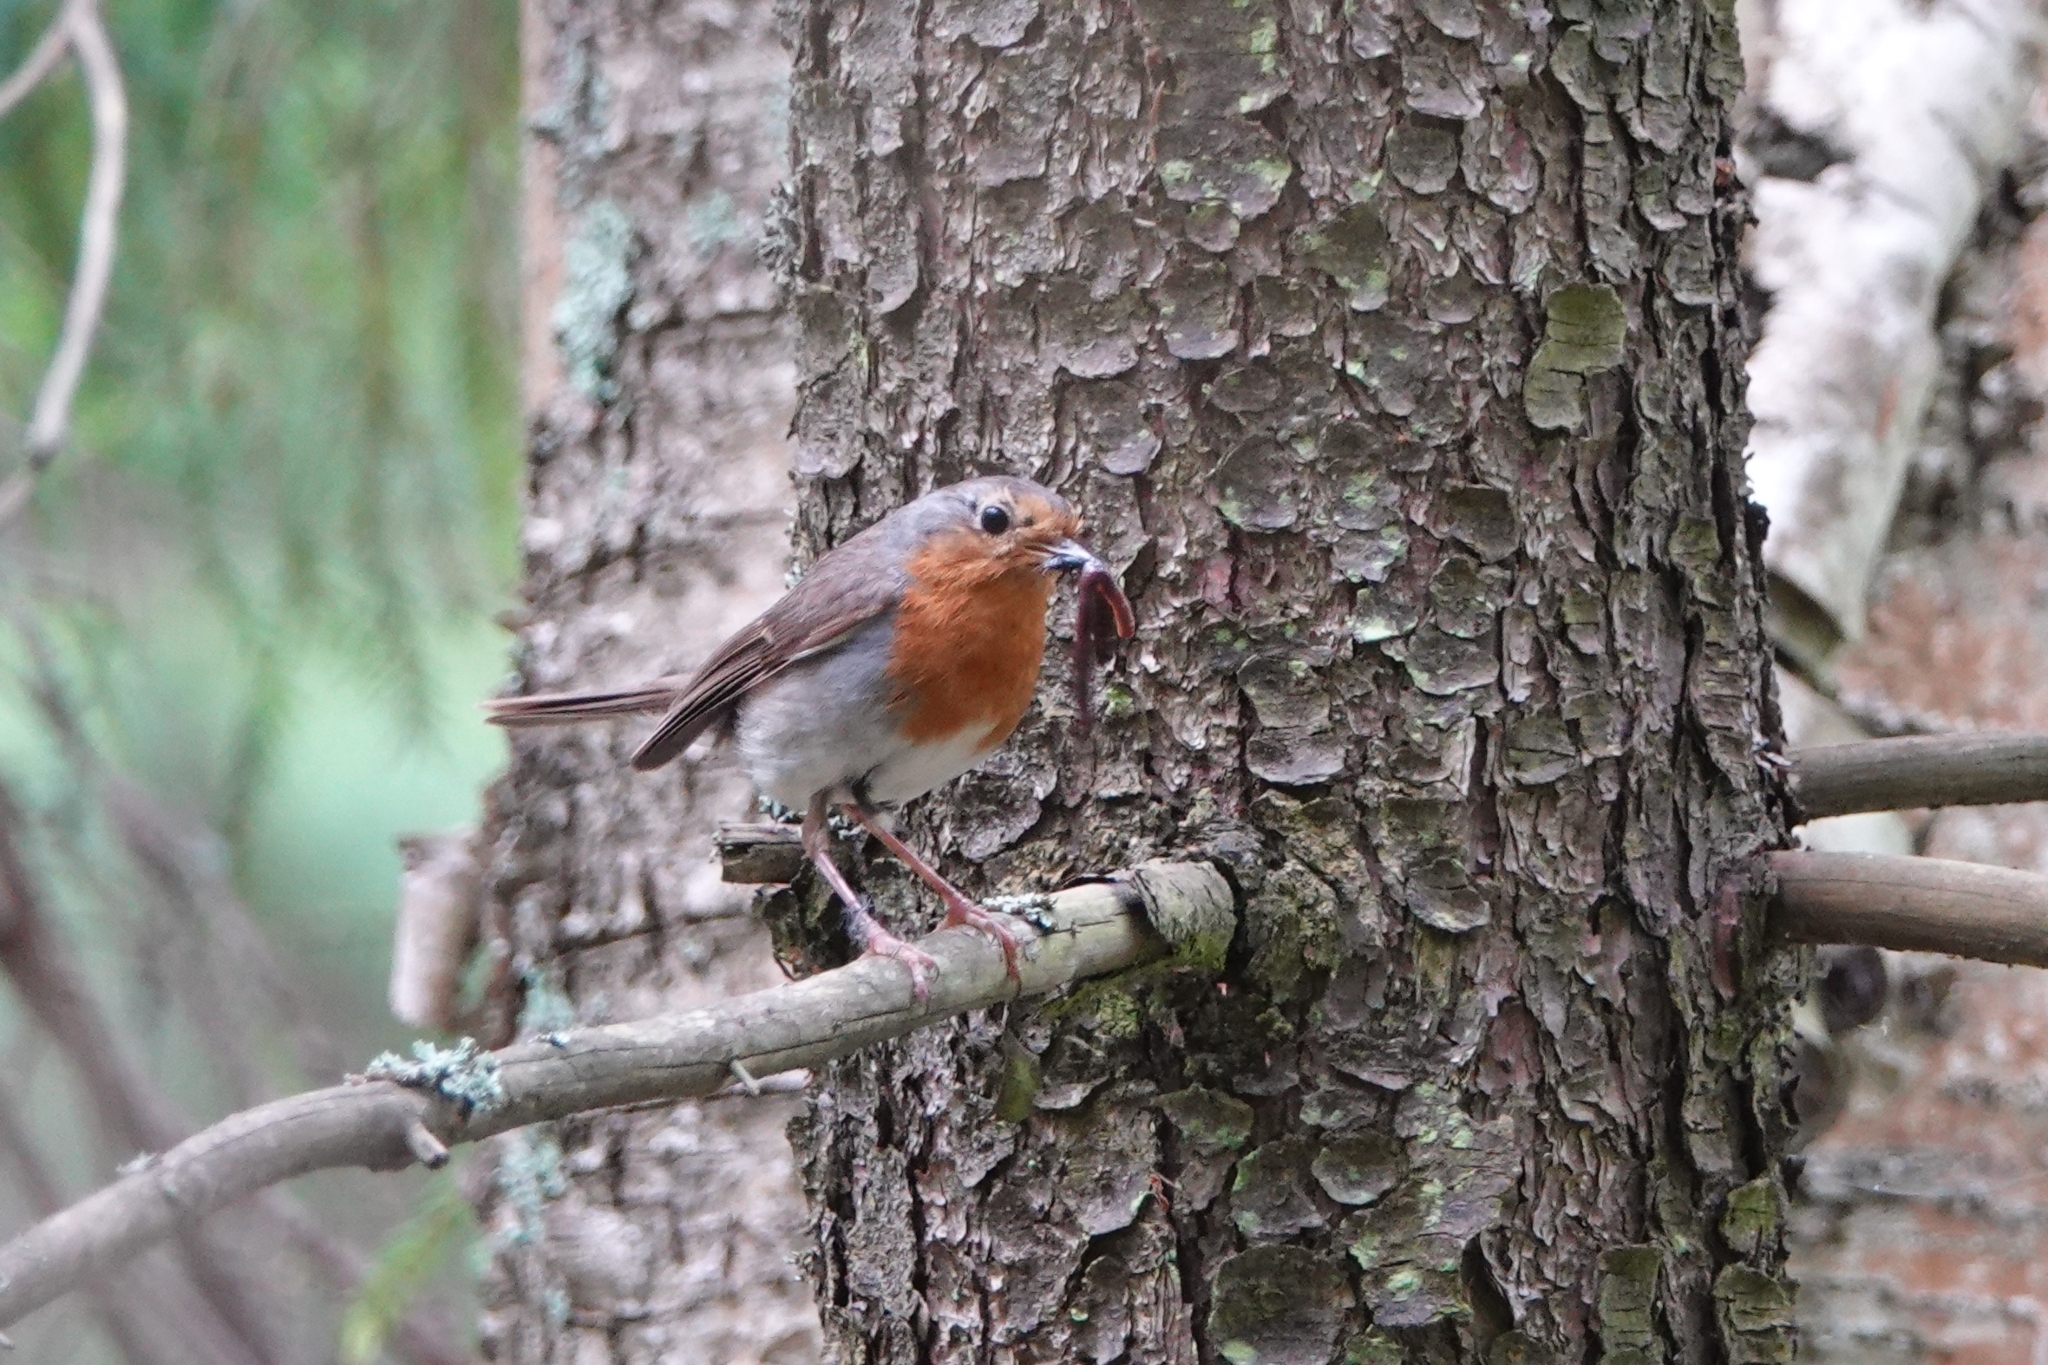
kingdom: Animalia
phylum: Chordata
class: Aves
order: Passeriformes
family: Muscicapidae
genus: Erithacus
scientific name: Erithacus rubecula
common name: European robin
